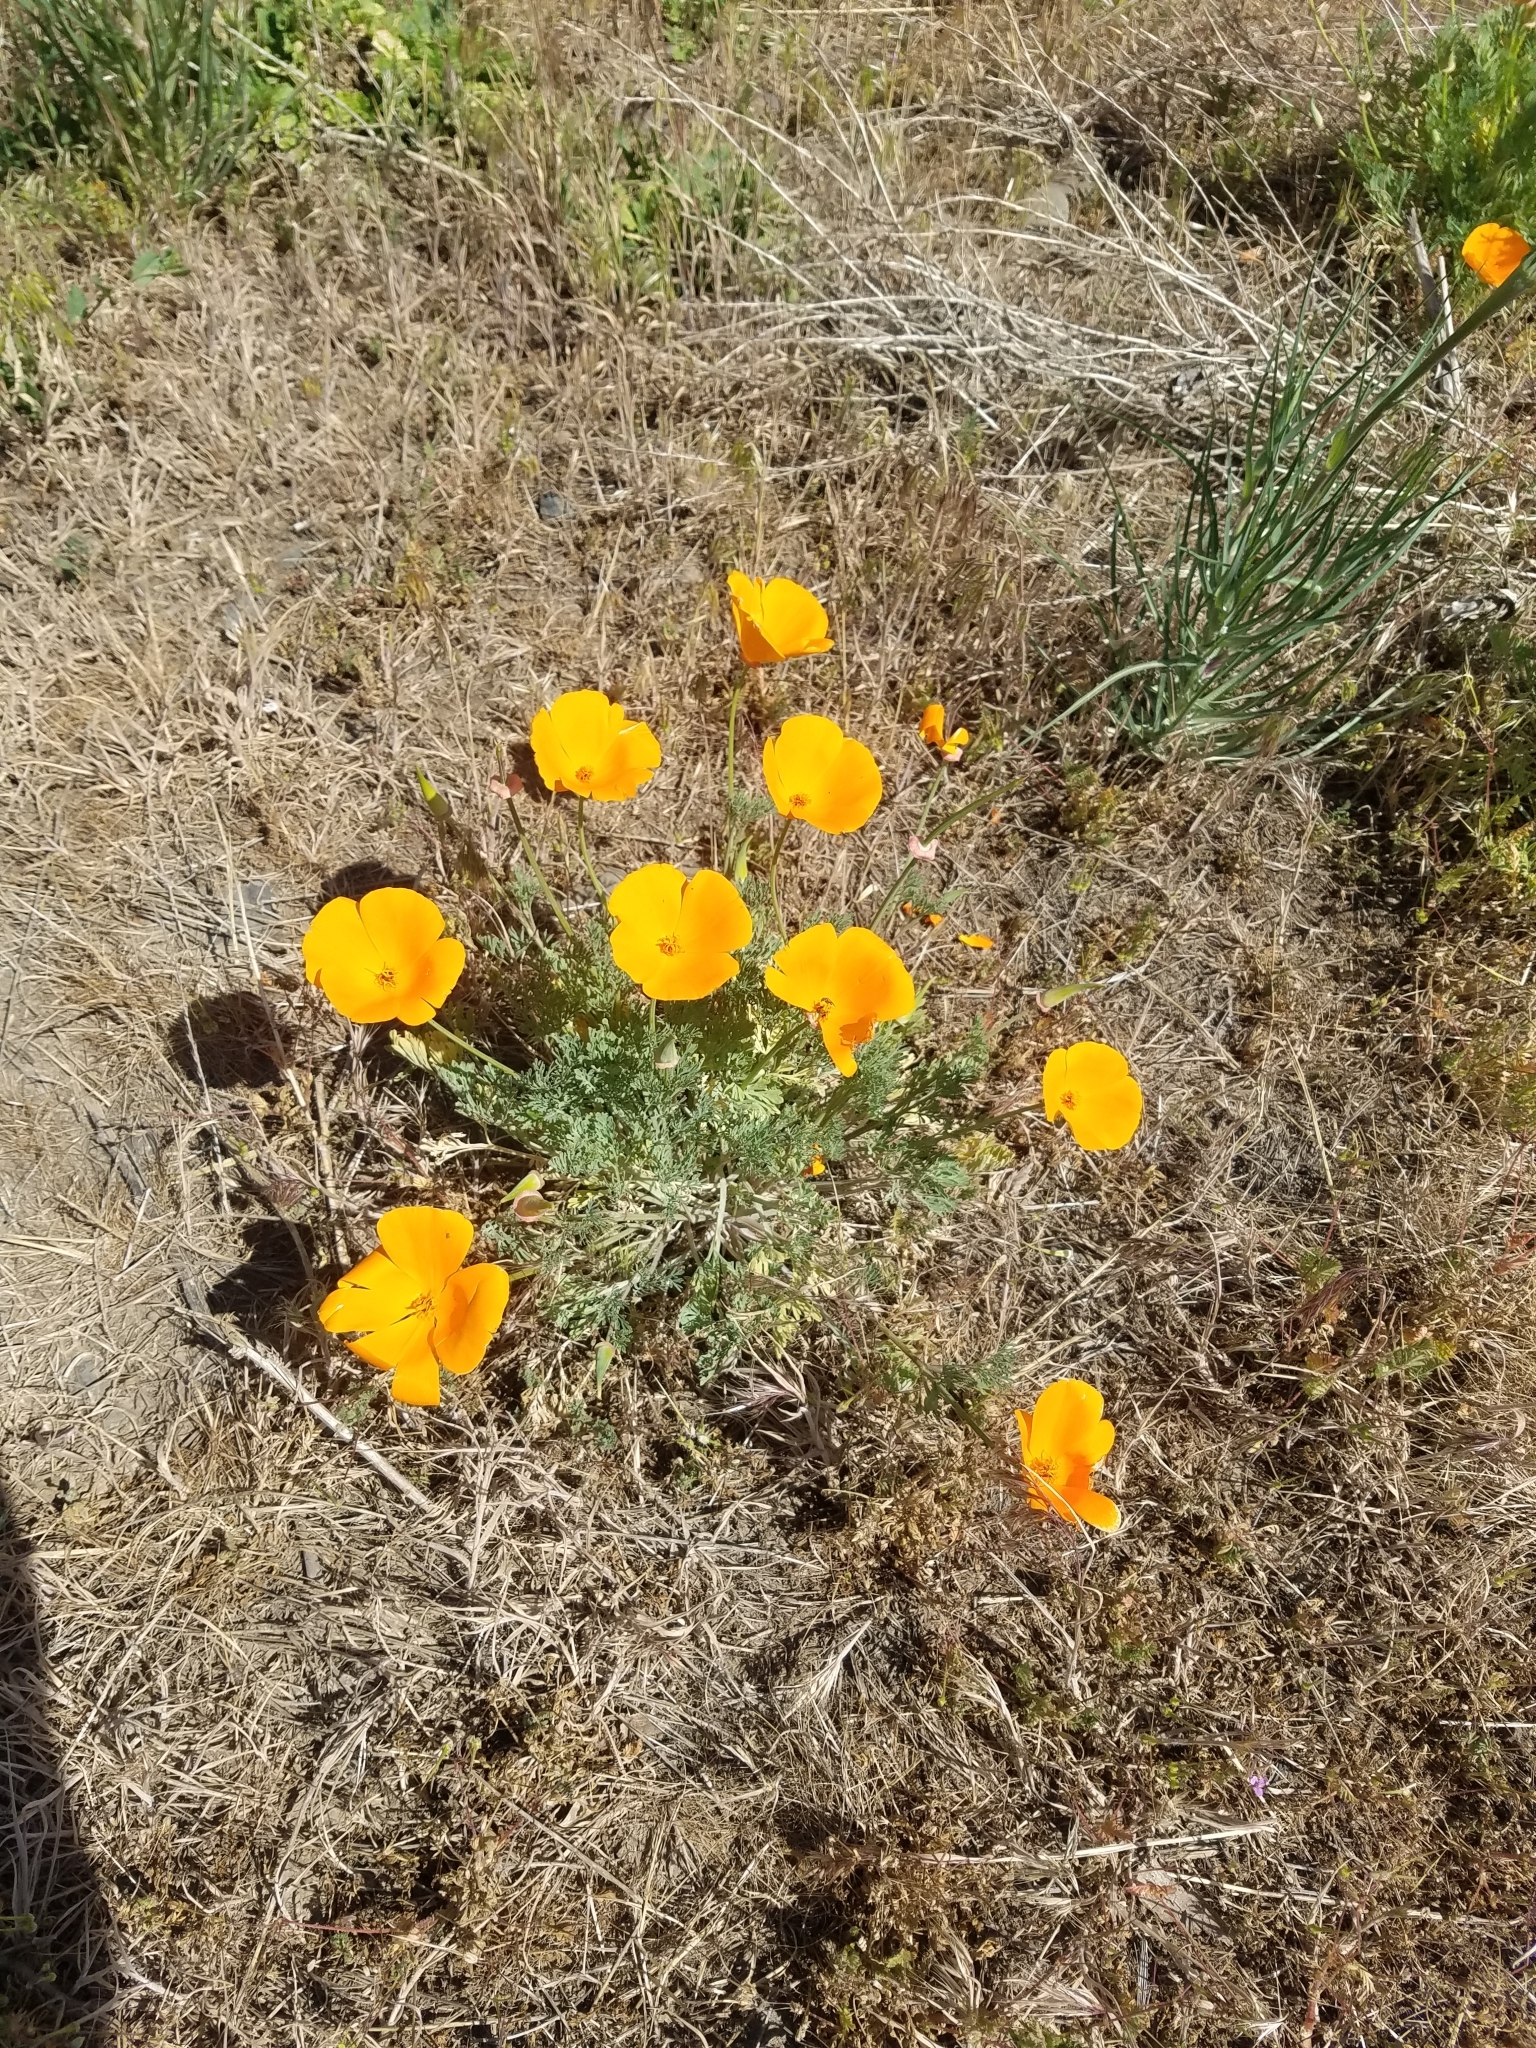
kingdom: Plantae
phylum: Tracheophyta
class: Magnoliopsida
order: Ranunculales
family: Papaveraceae
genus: Eschscholzia
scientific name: Eschscholzia californica
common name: California poppy
